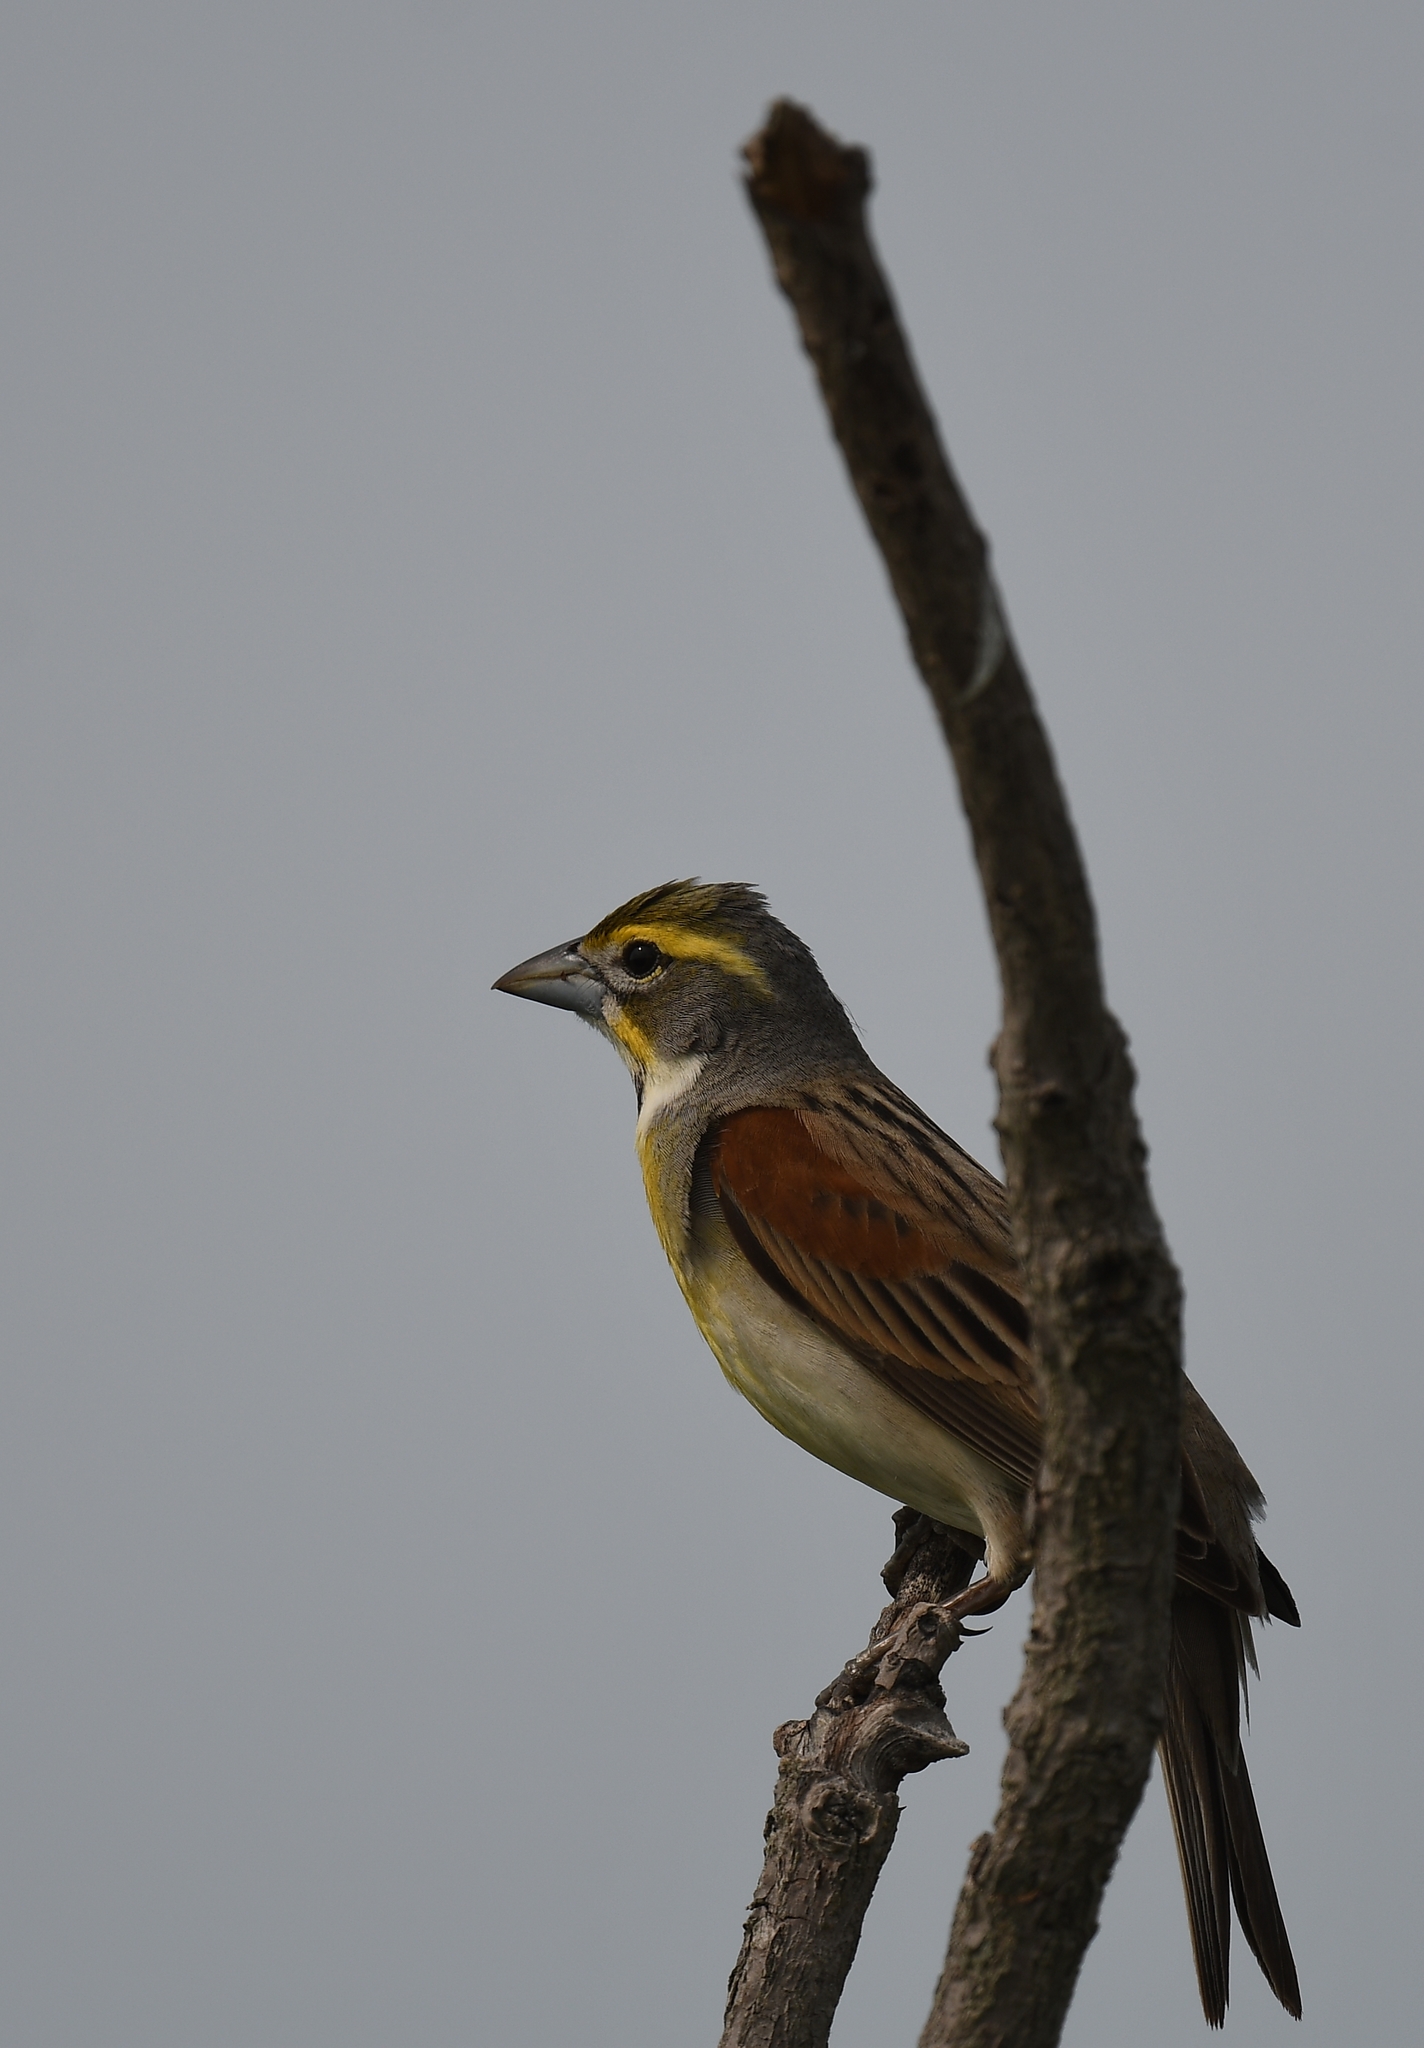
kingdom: Animalia
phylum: Chordata
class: Aves
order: Passeriformes
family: Cardinalidae
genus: Spiza
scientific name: Spiza americana
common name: Dickcissel
